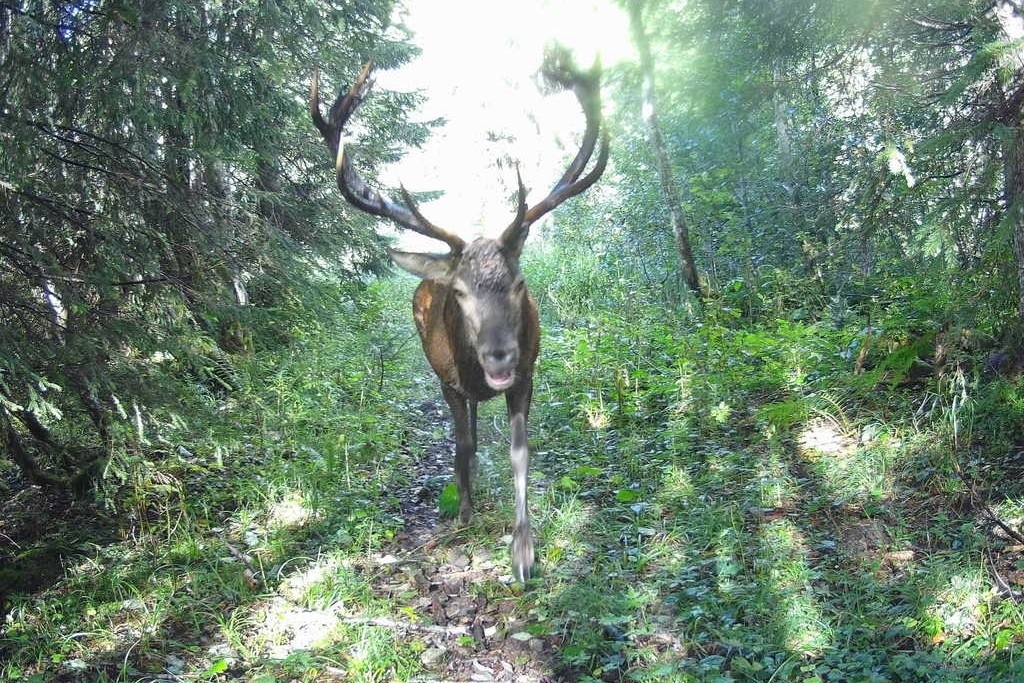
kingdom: Animalia
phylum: Chordata
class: Mammalia
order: Artiodactyla
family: Cervidae
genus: Cervus
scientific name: Cervus elaphus
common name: Red deer
